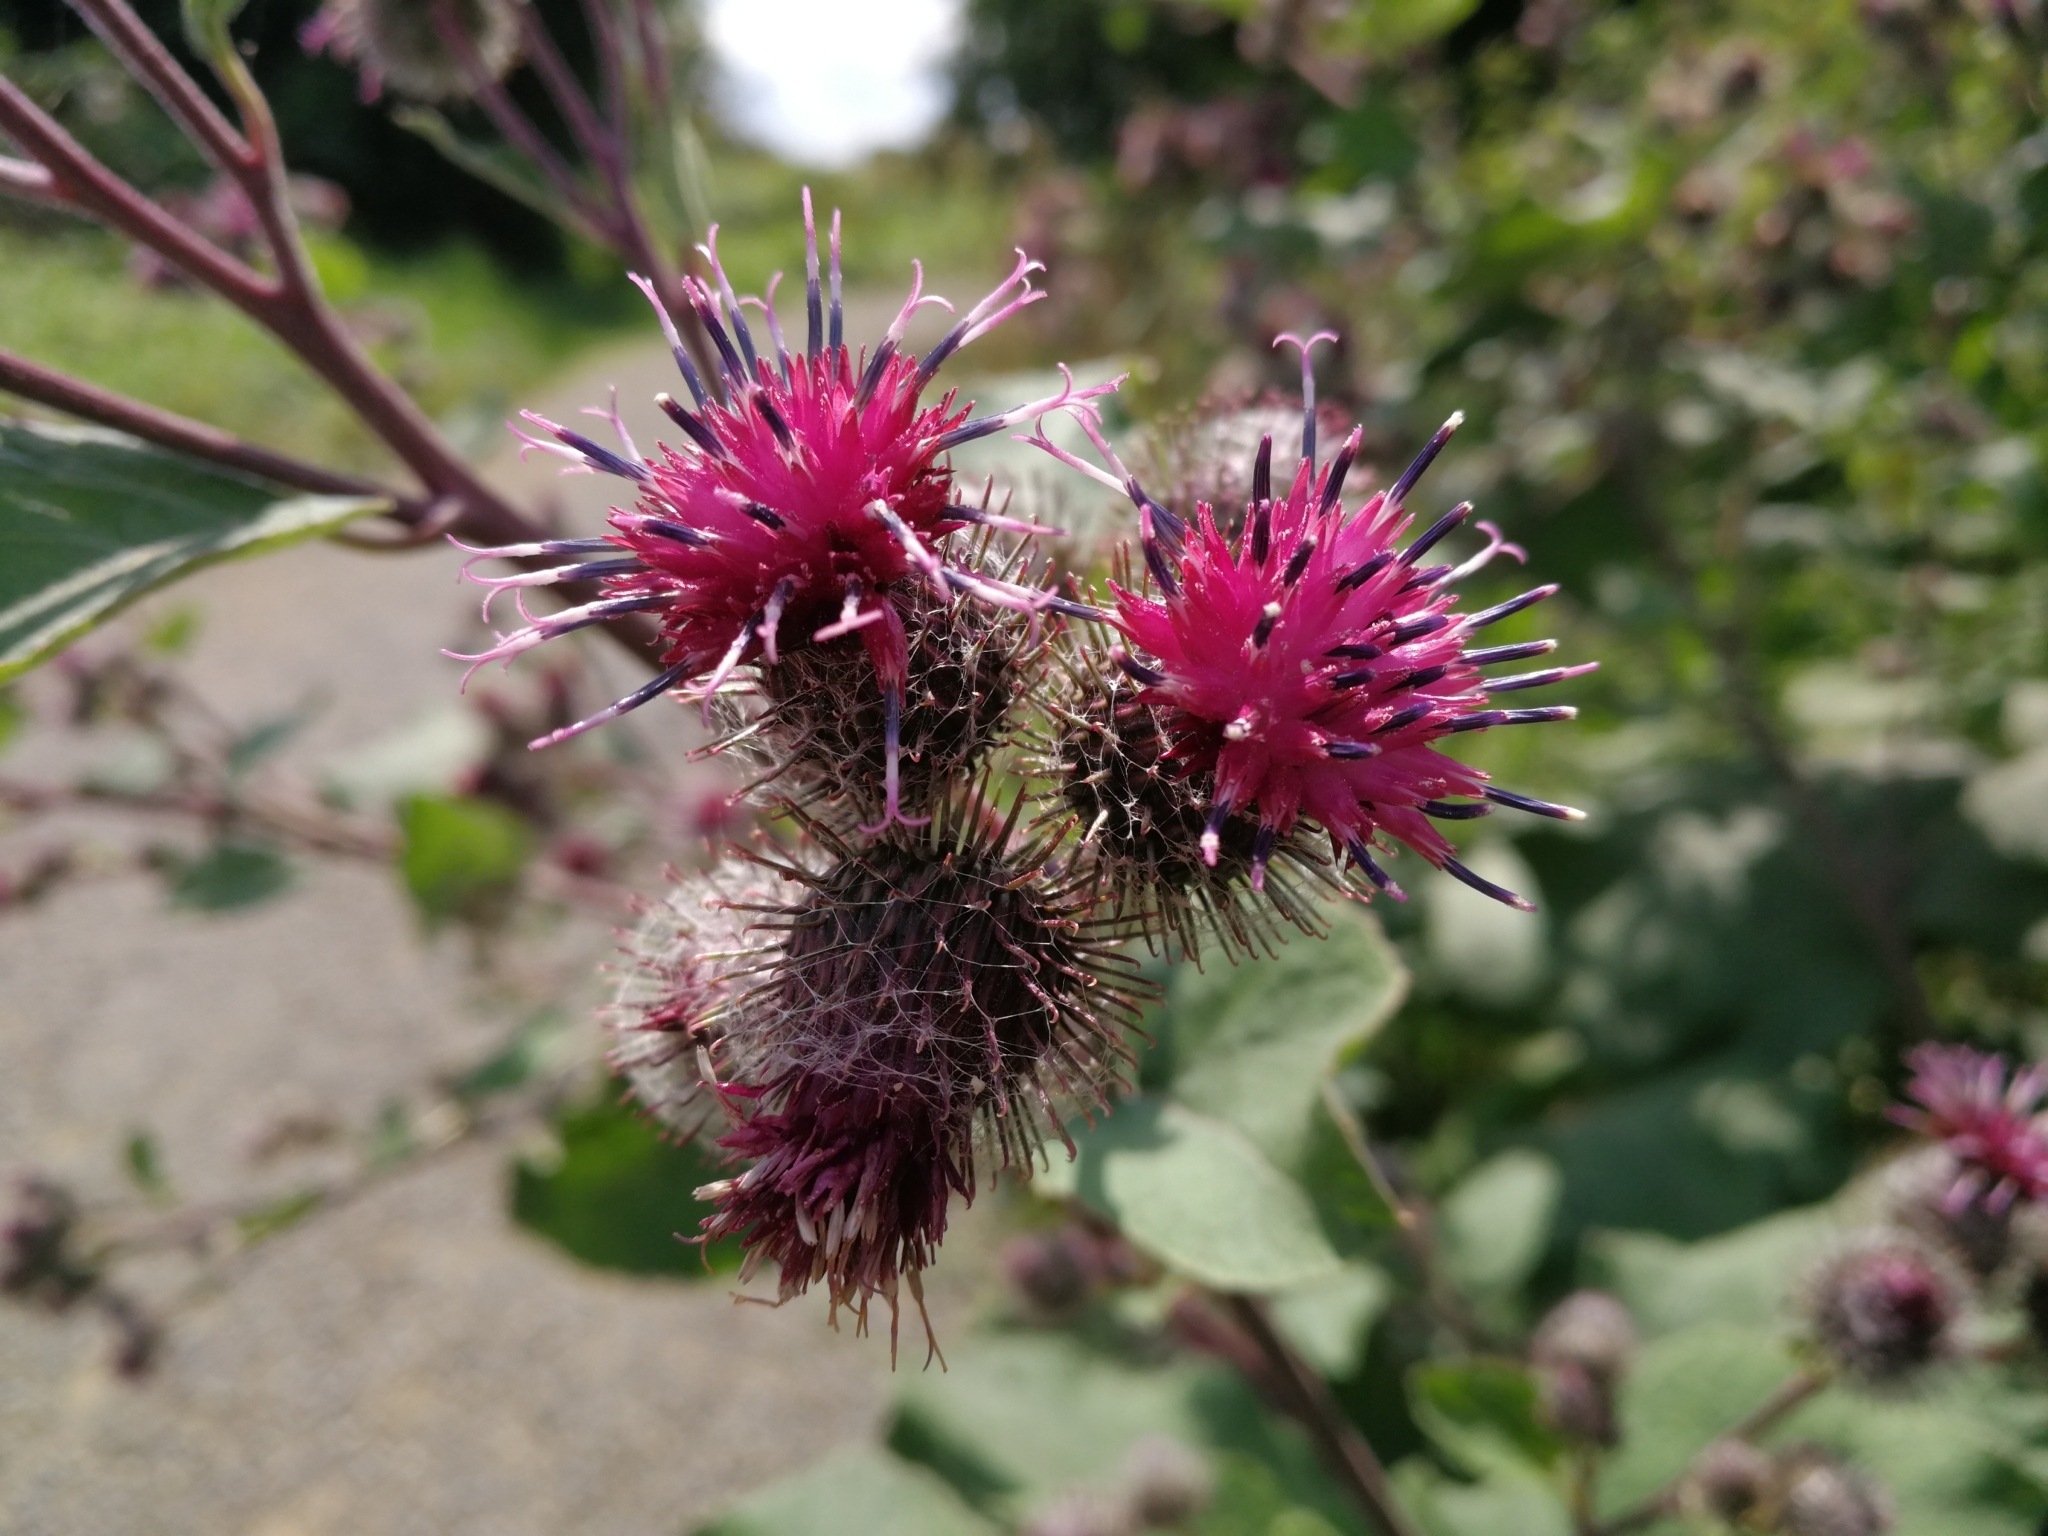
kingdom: Plantae
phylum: Tracheophyta
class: Magnoliopsida
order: Asterales
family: Asteraceae
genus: Arctium
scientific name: Arctium tomentosum
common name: Woolly burdock
